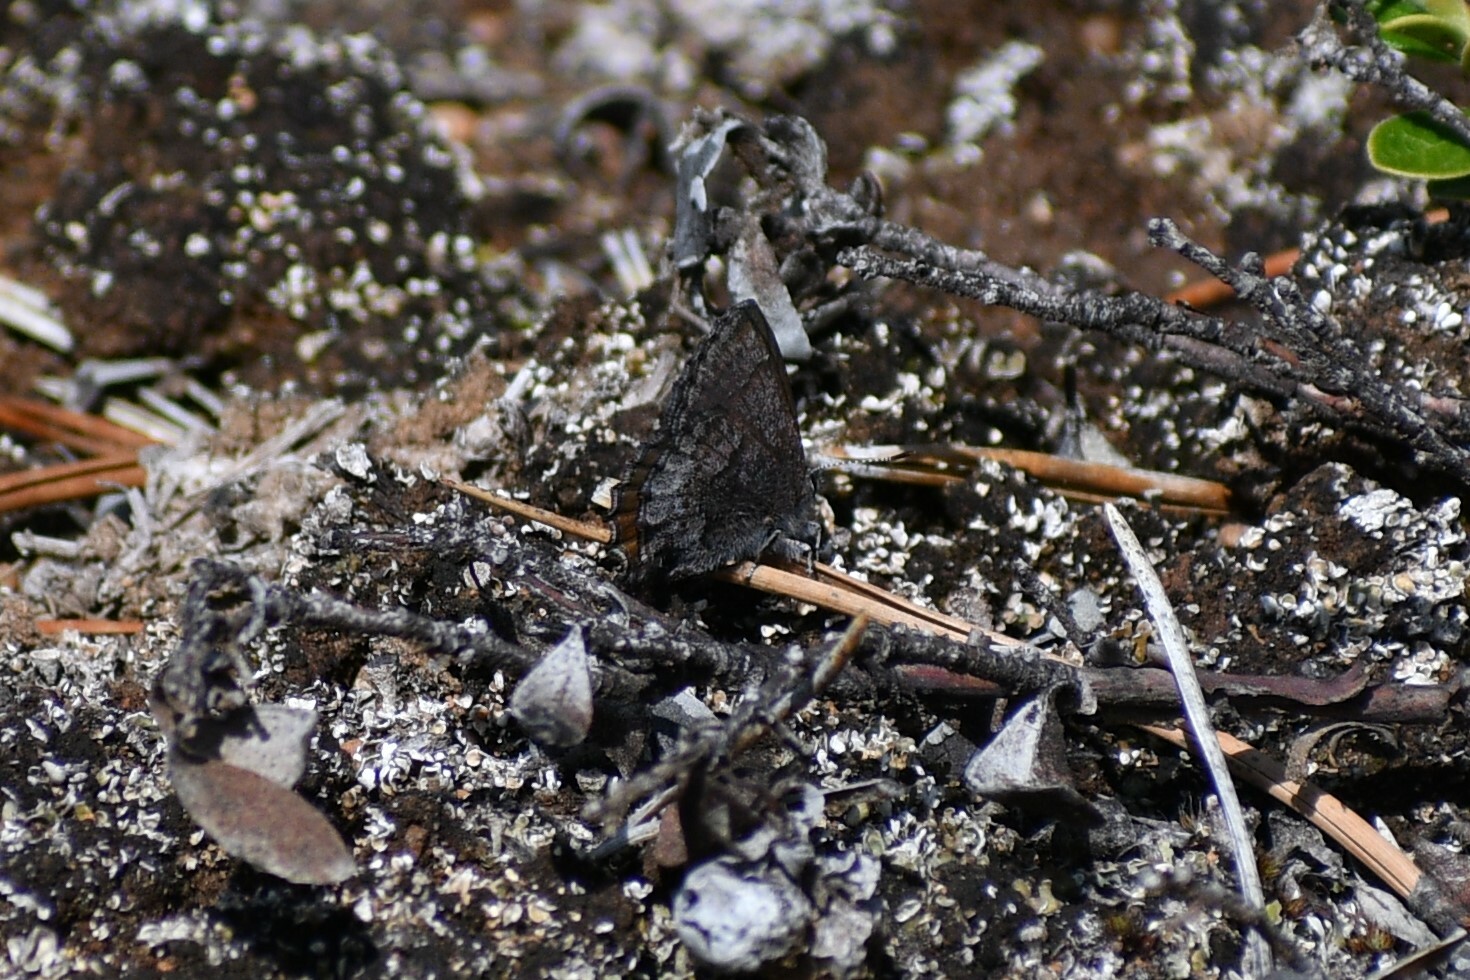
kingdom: Animalia
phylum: Arthropoda
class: Insecta
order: Lepidoptera
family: Lycaenidae
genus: Callophrys
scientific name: Callophrys polios
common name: Hoary elfin
